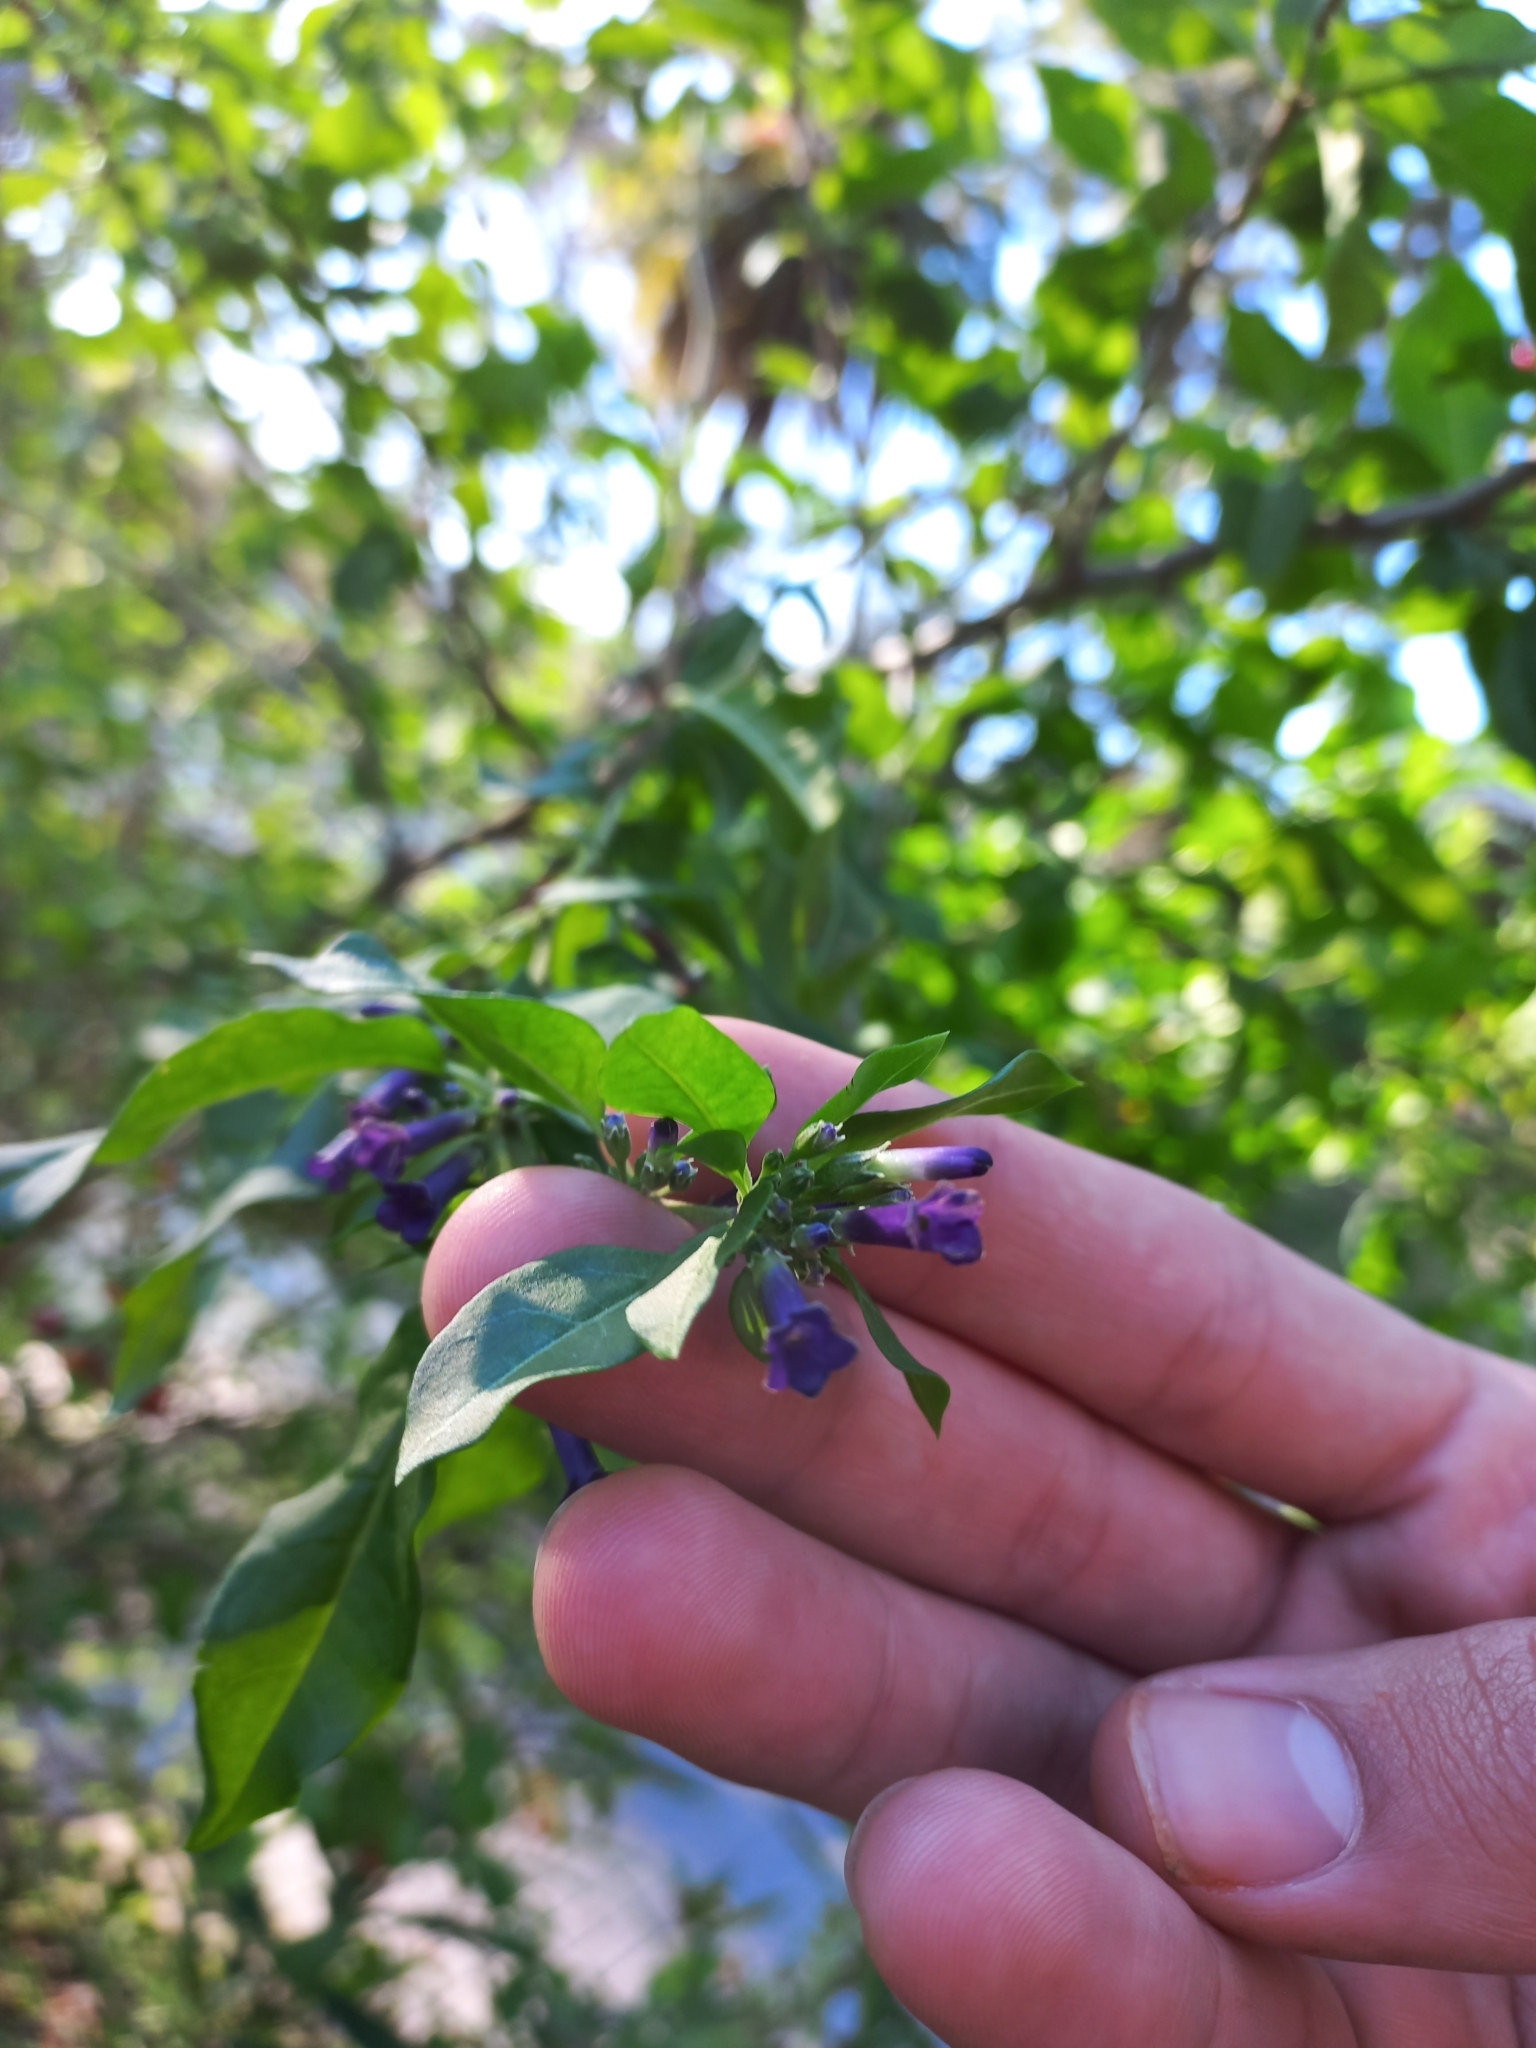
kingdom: Plantae
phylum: Tracheophyta
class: Magnoliopsida
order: Solanales
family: Solanaceae
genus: Lycium
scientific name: Lycium cestroides
